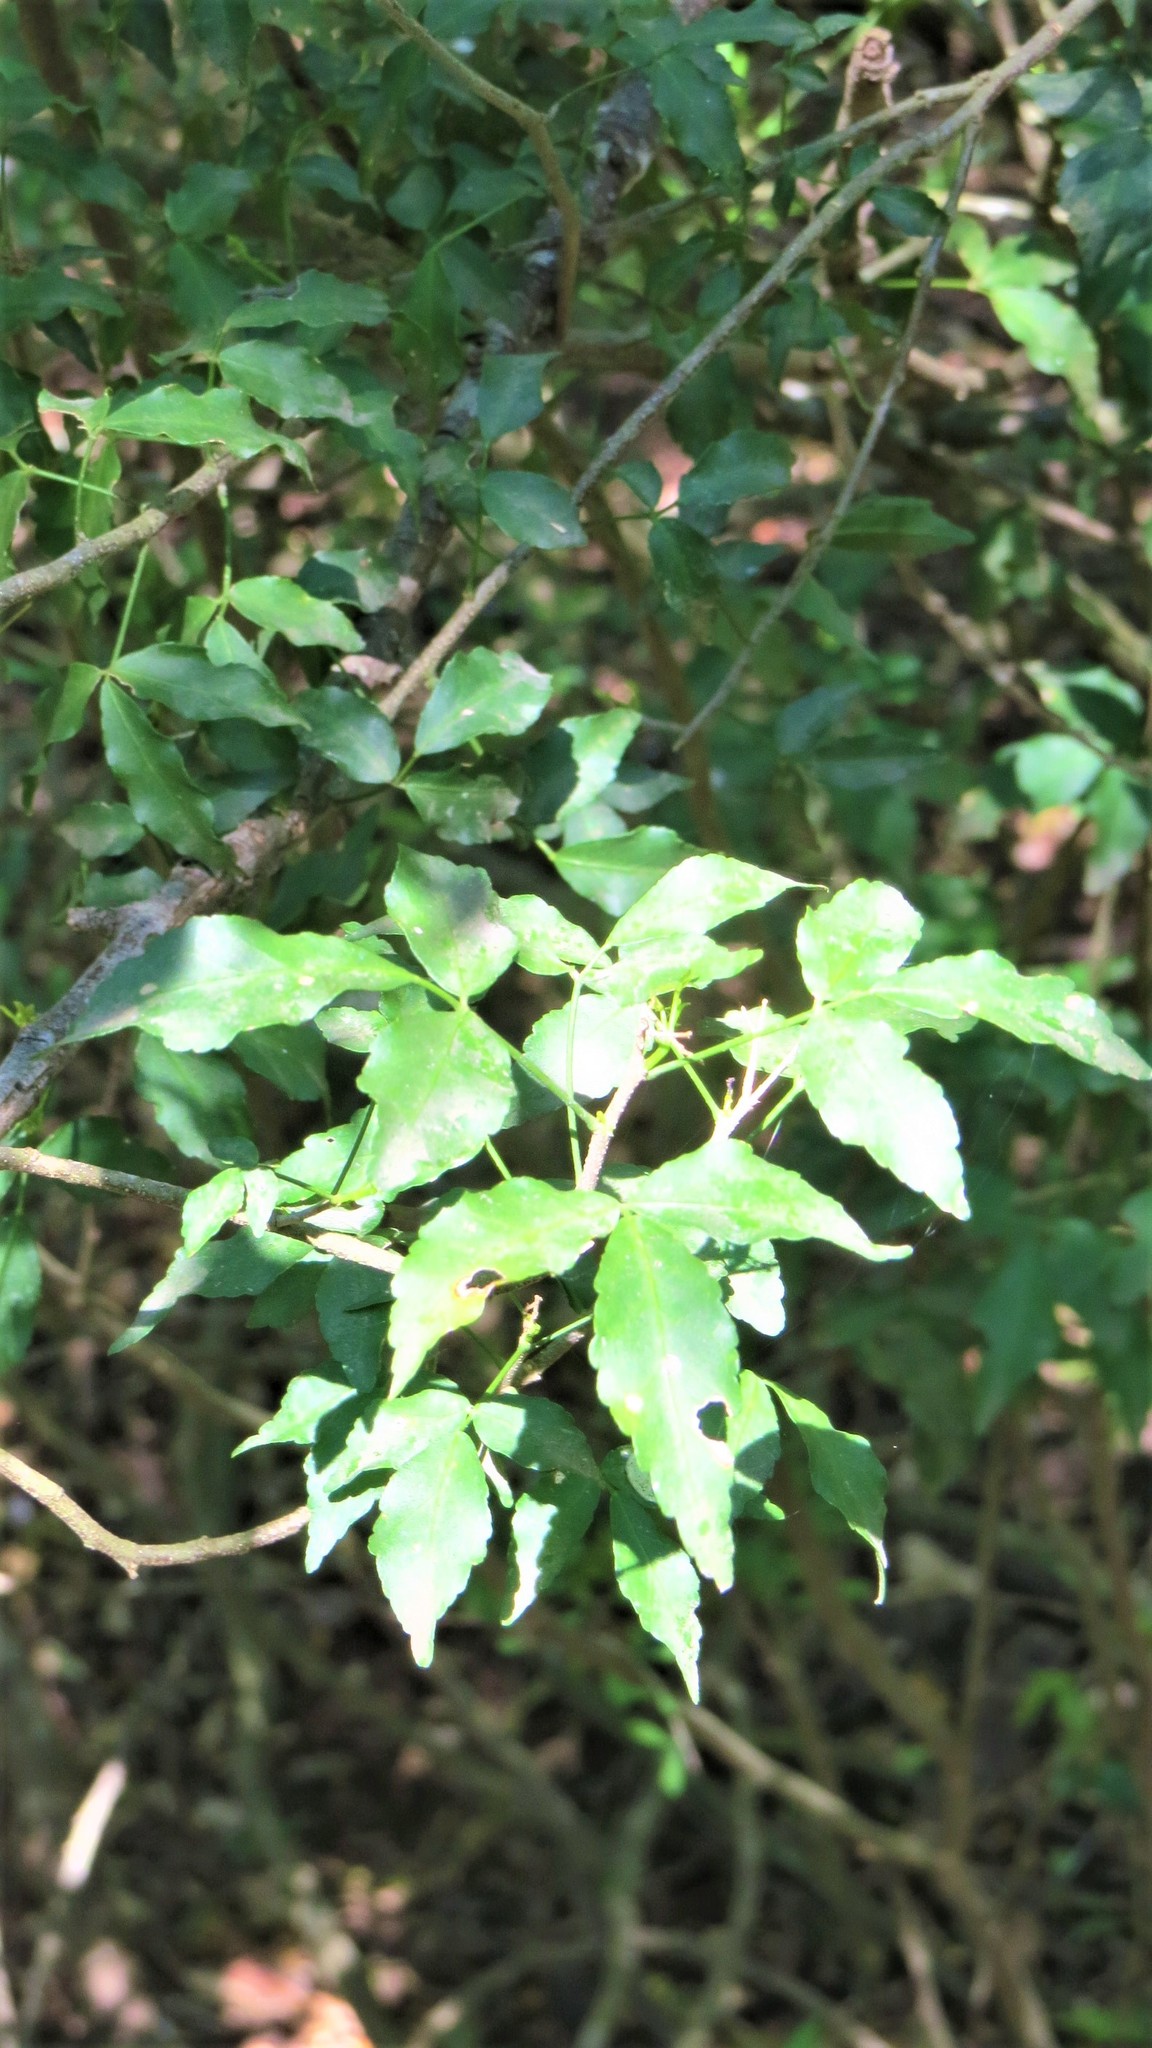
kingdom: Plantae
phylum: Tracheophyta
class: Magnoliopsida
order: Sapindales
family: Rutaceae
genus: Amyris
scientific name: Amyris texana
